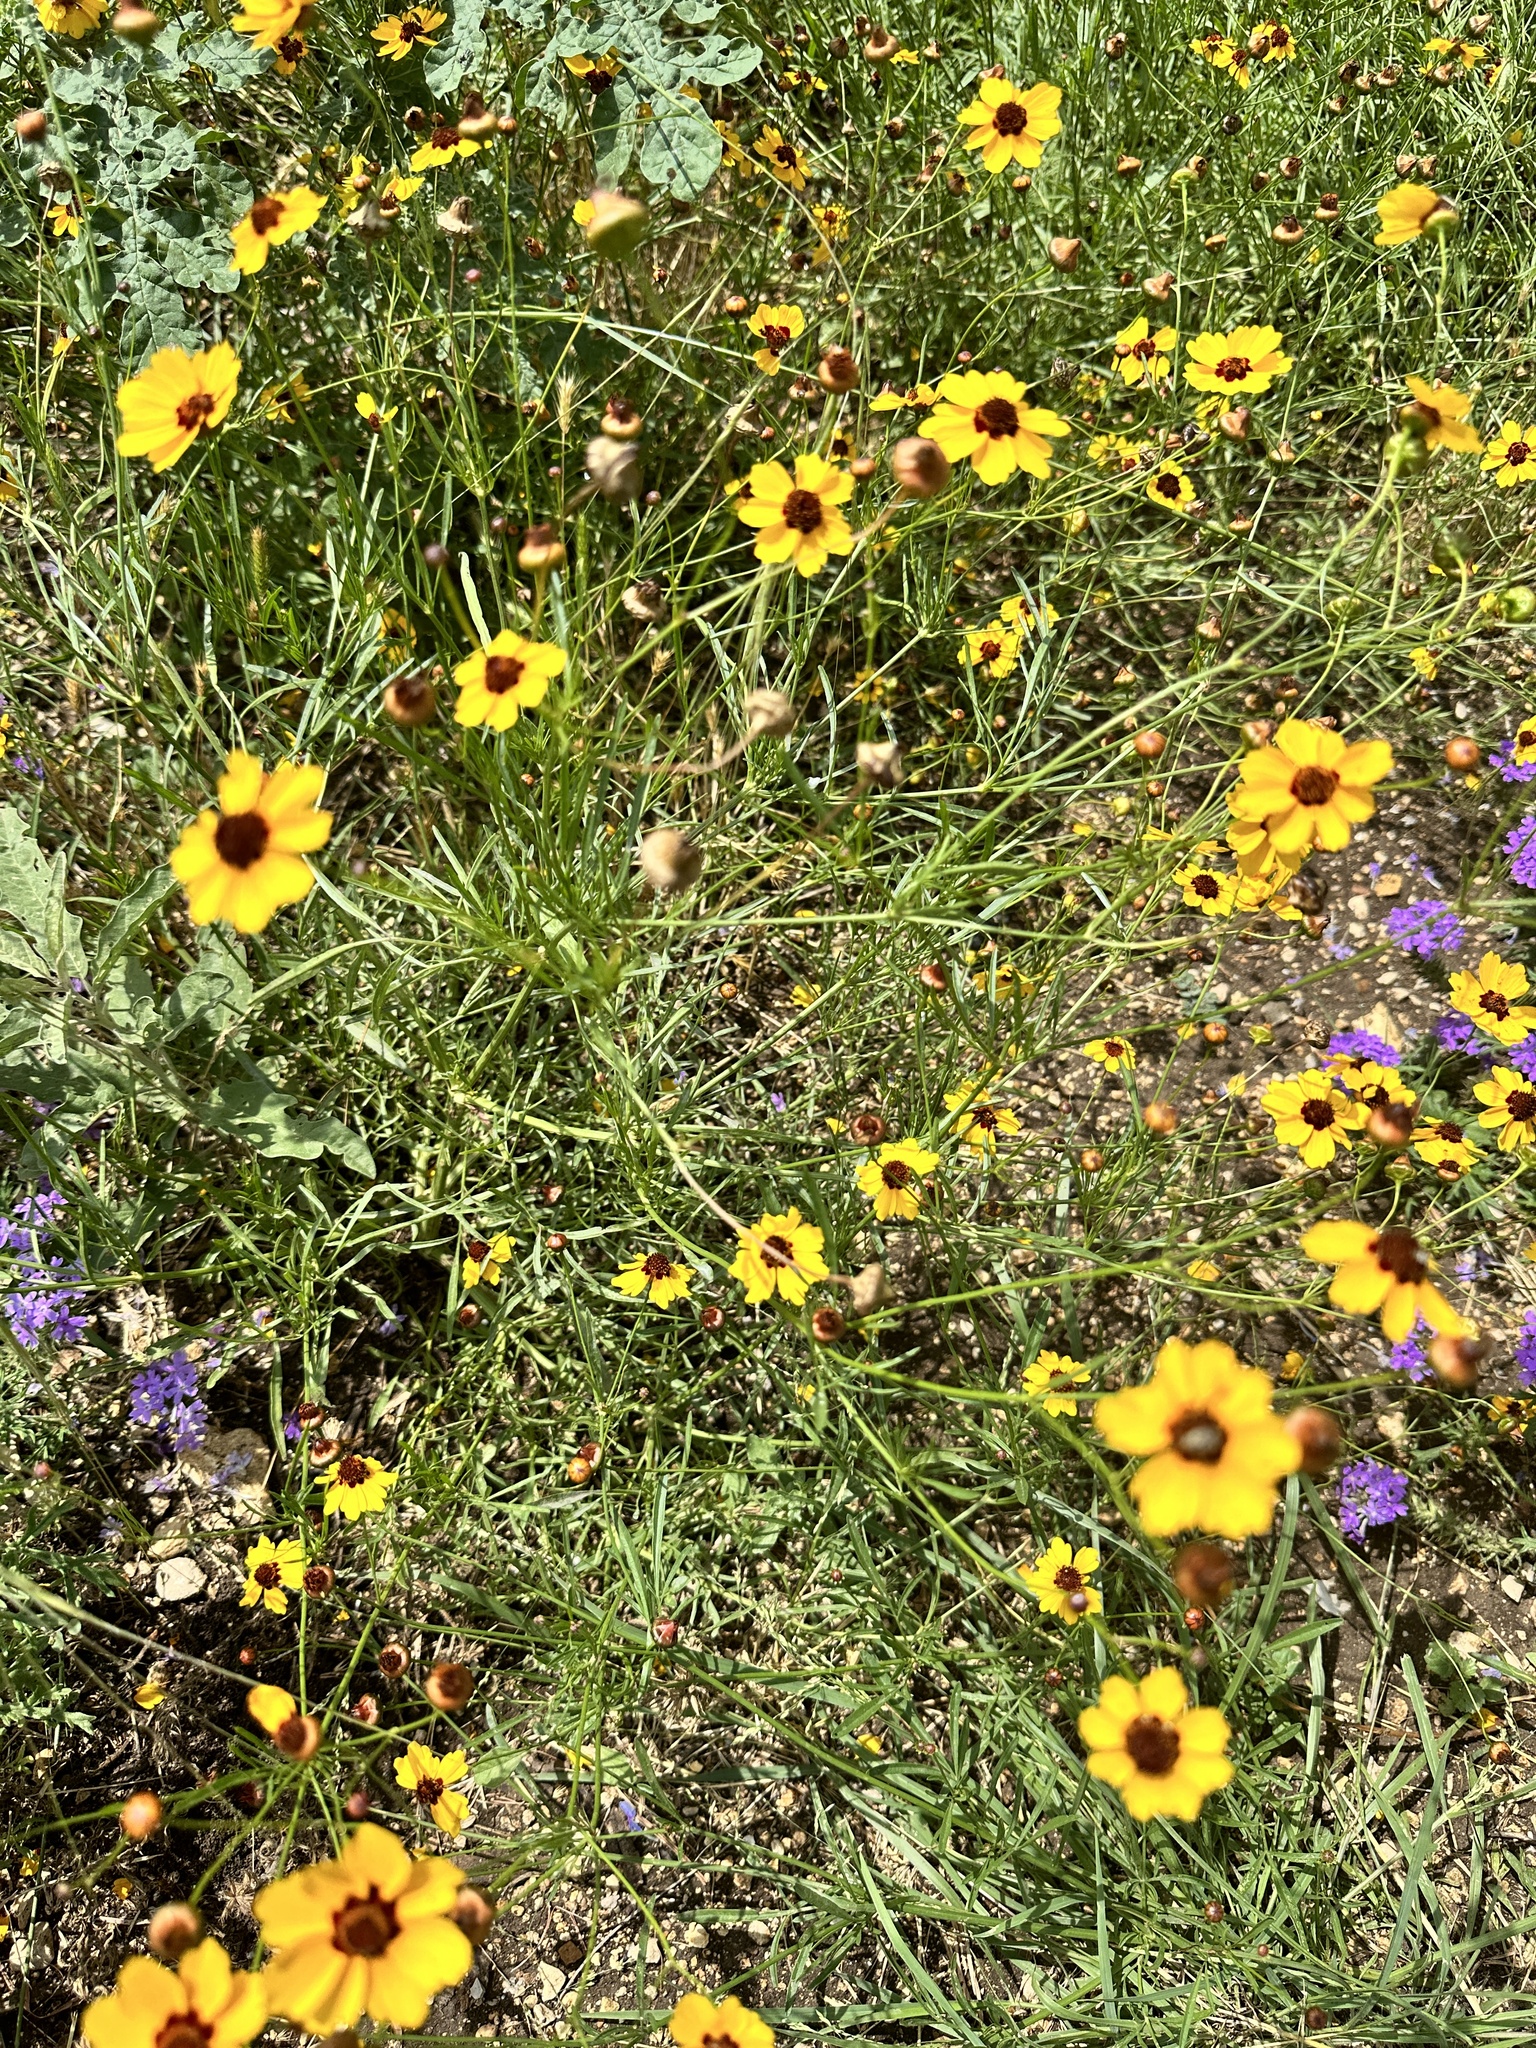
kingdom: Plantae
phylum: Tracheophyta
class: Magnoliopsida
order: Asterales
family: Asteraceae
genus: Thelesperma
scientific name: Thelesperma filifolium
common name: Stiff greenthread
